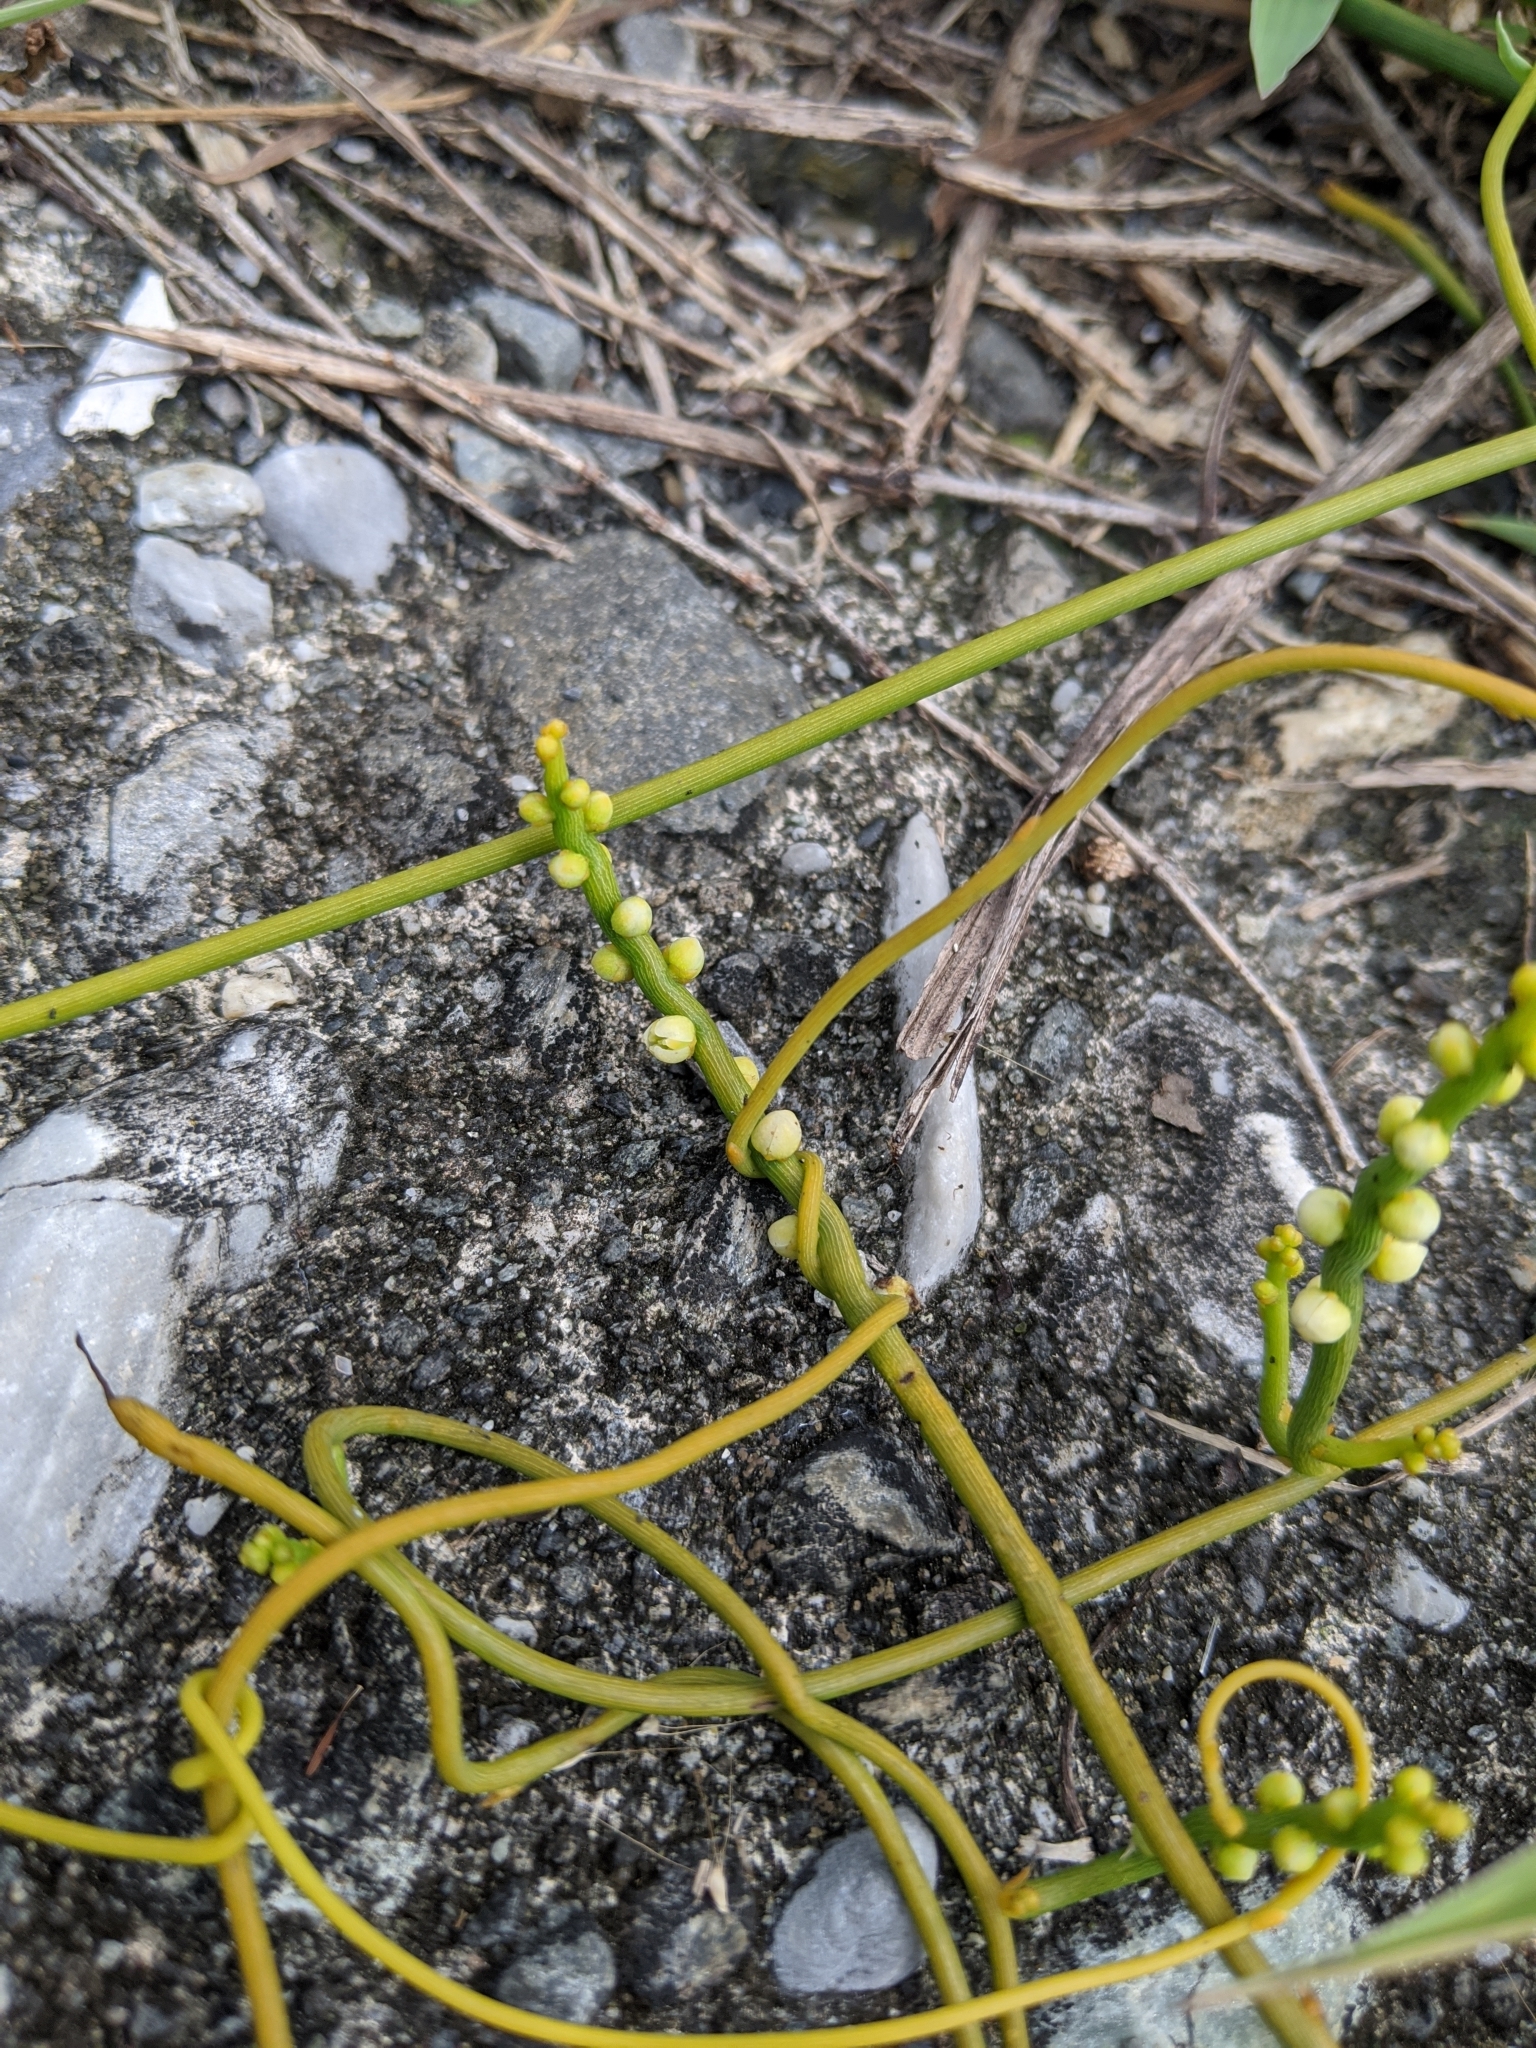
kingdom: Plantae
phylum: Tracheophyta
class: Magnoliopsida
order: Laurales
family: Lauraceae
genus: Cassytha
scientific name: Cassytha filiformis
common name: Dodder-laurel
